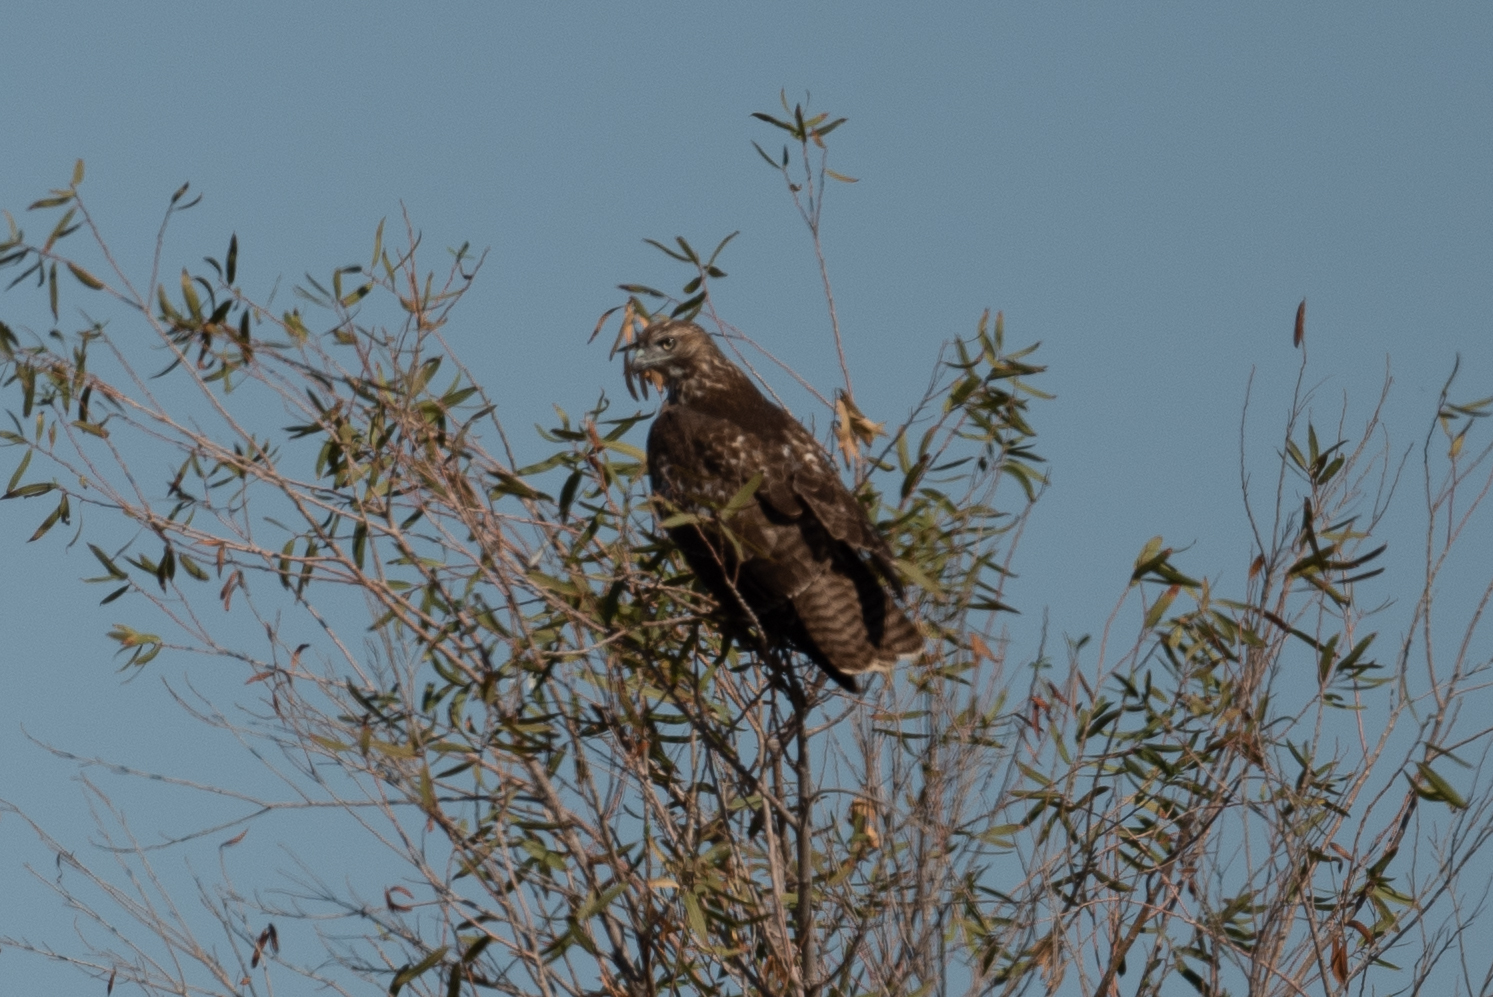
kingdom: Animalia
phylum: Chordata
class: Aves
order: Accipitriformes
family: Accipitridae
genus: Buteo
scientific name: Buteo jamaicensis
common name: Red-tailed hawk
